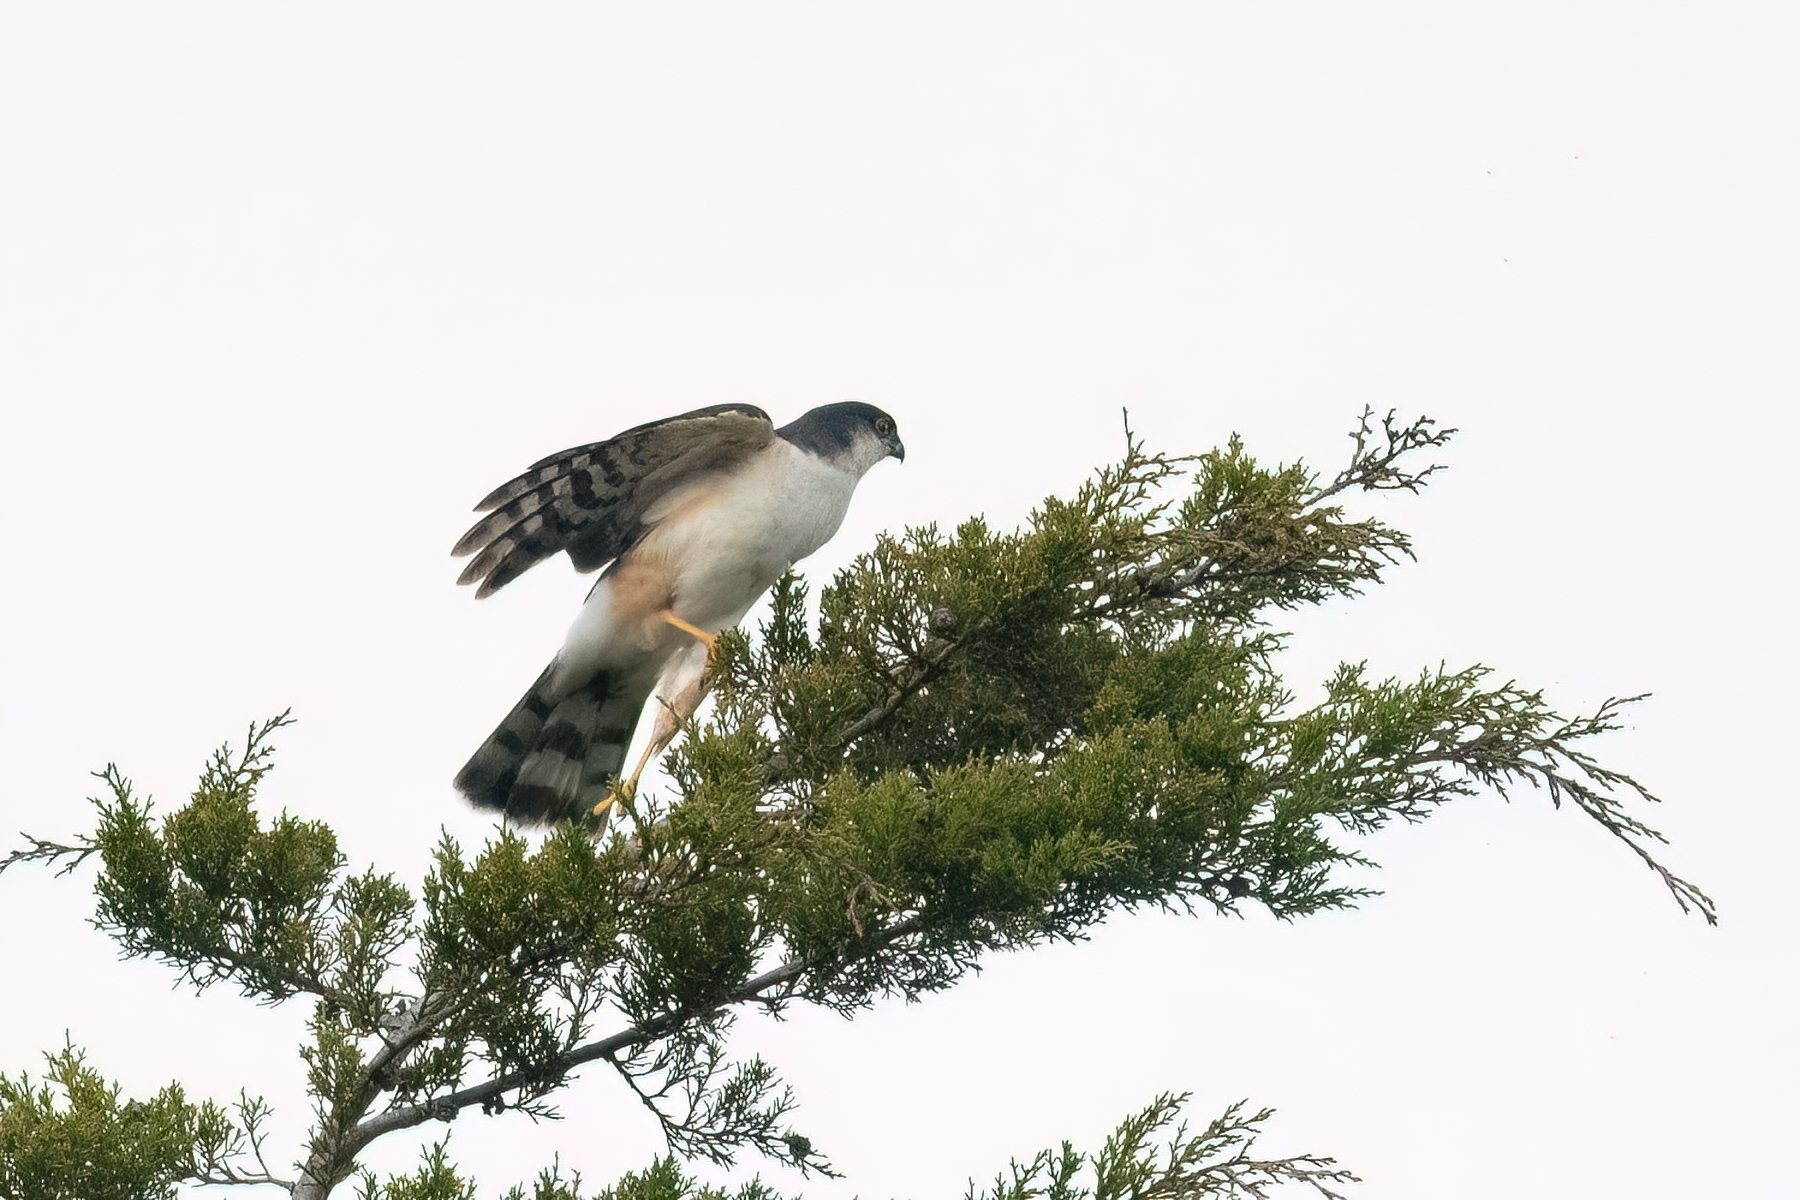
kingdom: Animalia
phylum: Chordata
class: Aves
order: Accipitriformes
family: Accipitridae
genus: Accipiter
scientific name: Accipiter striatus
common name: Sharp-shinned hawk
